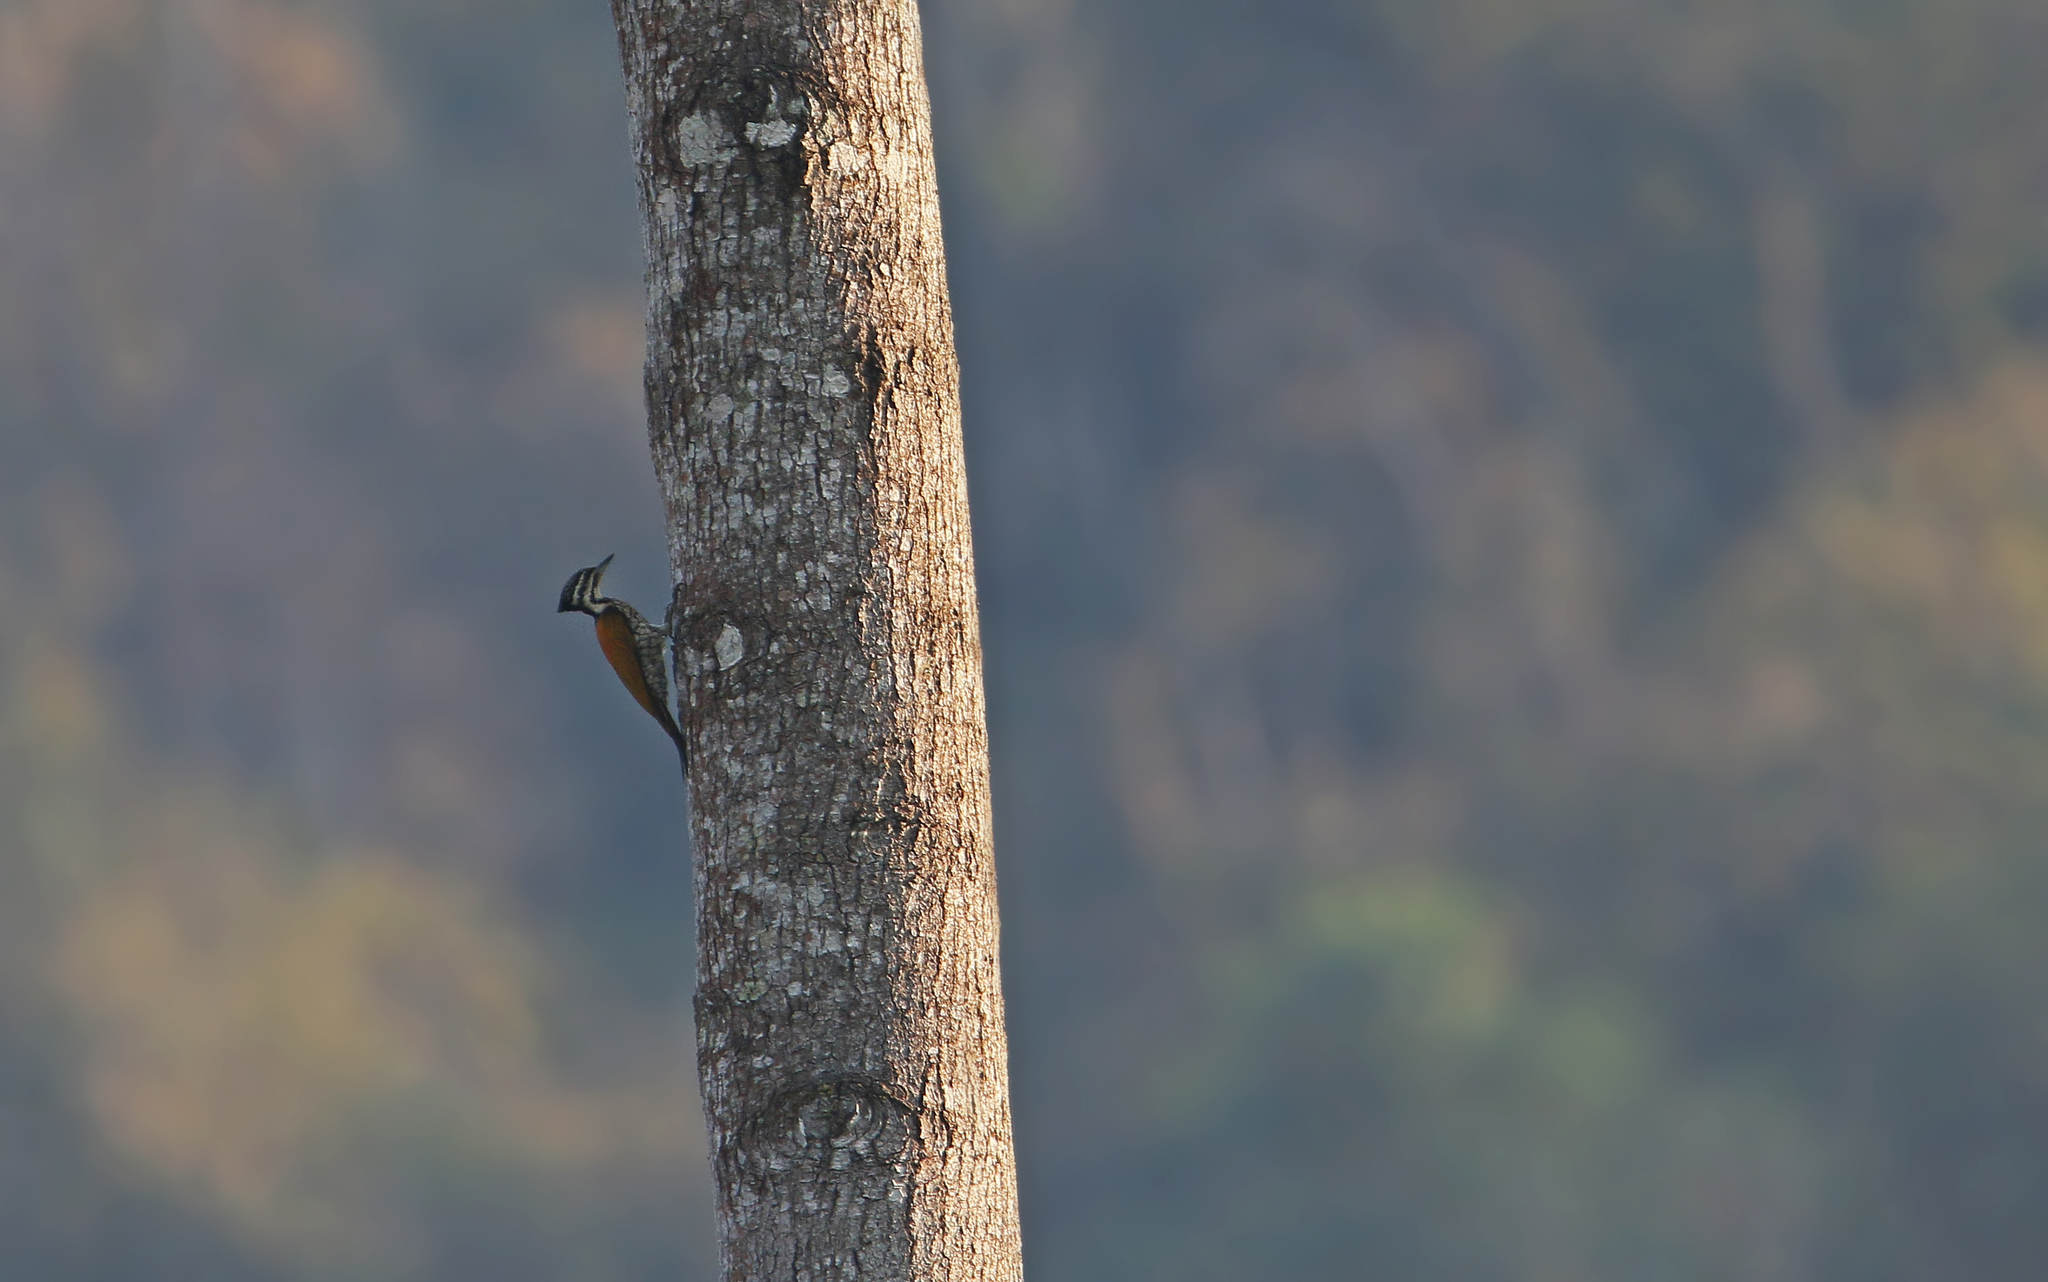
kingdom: Animalia
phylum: Chordata
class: Aves
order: Piciformes
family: Picidae
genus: Dinopium
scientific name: Dinopium javanense
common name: Common flameback
